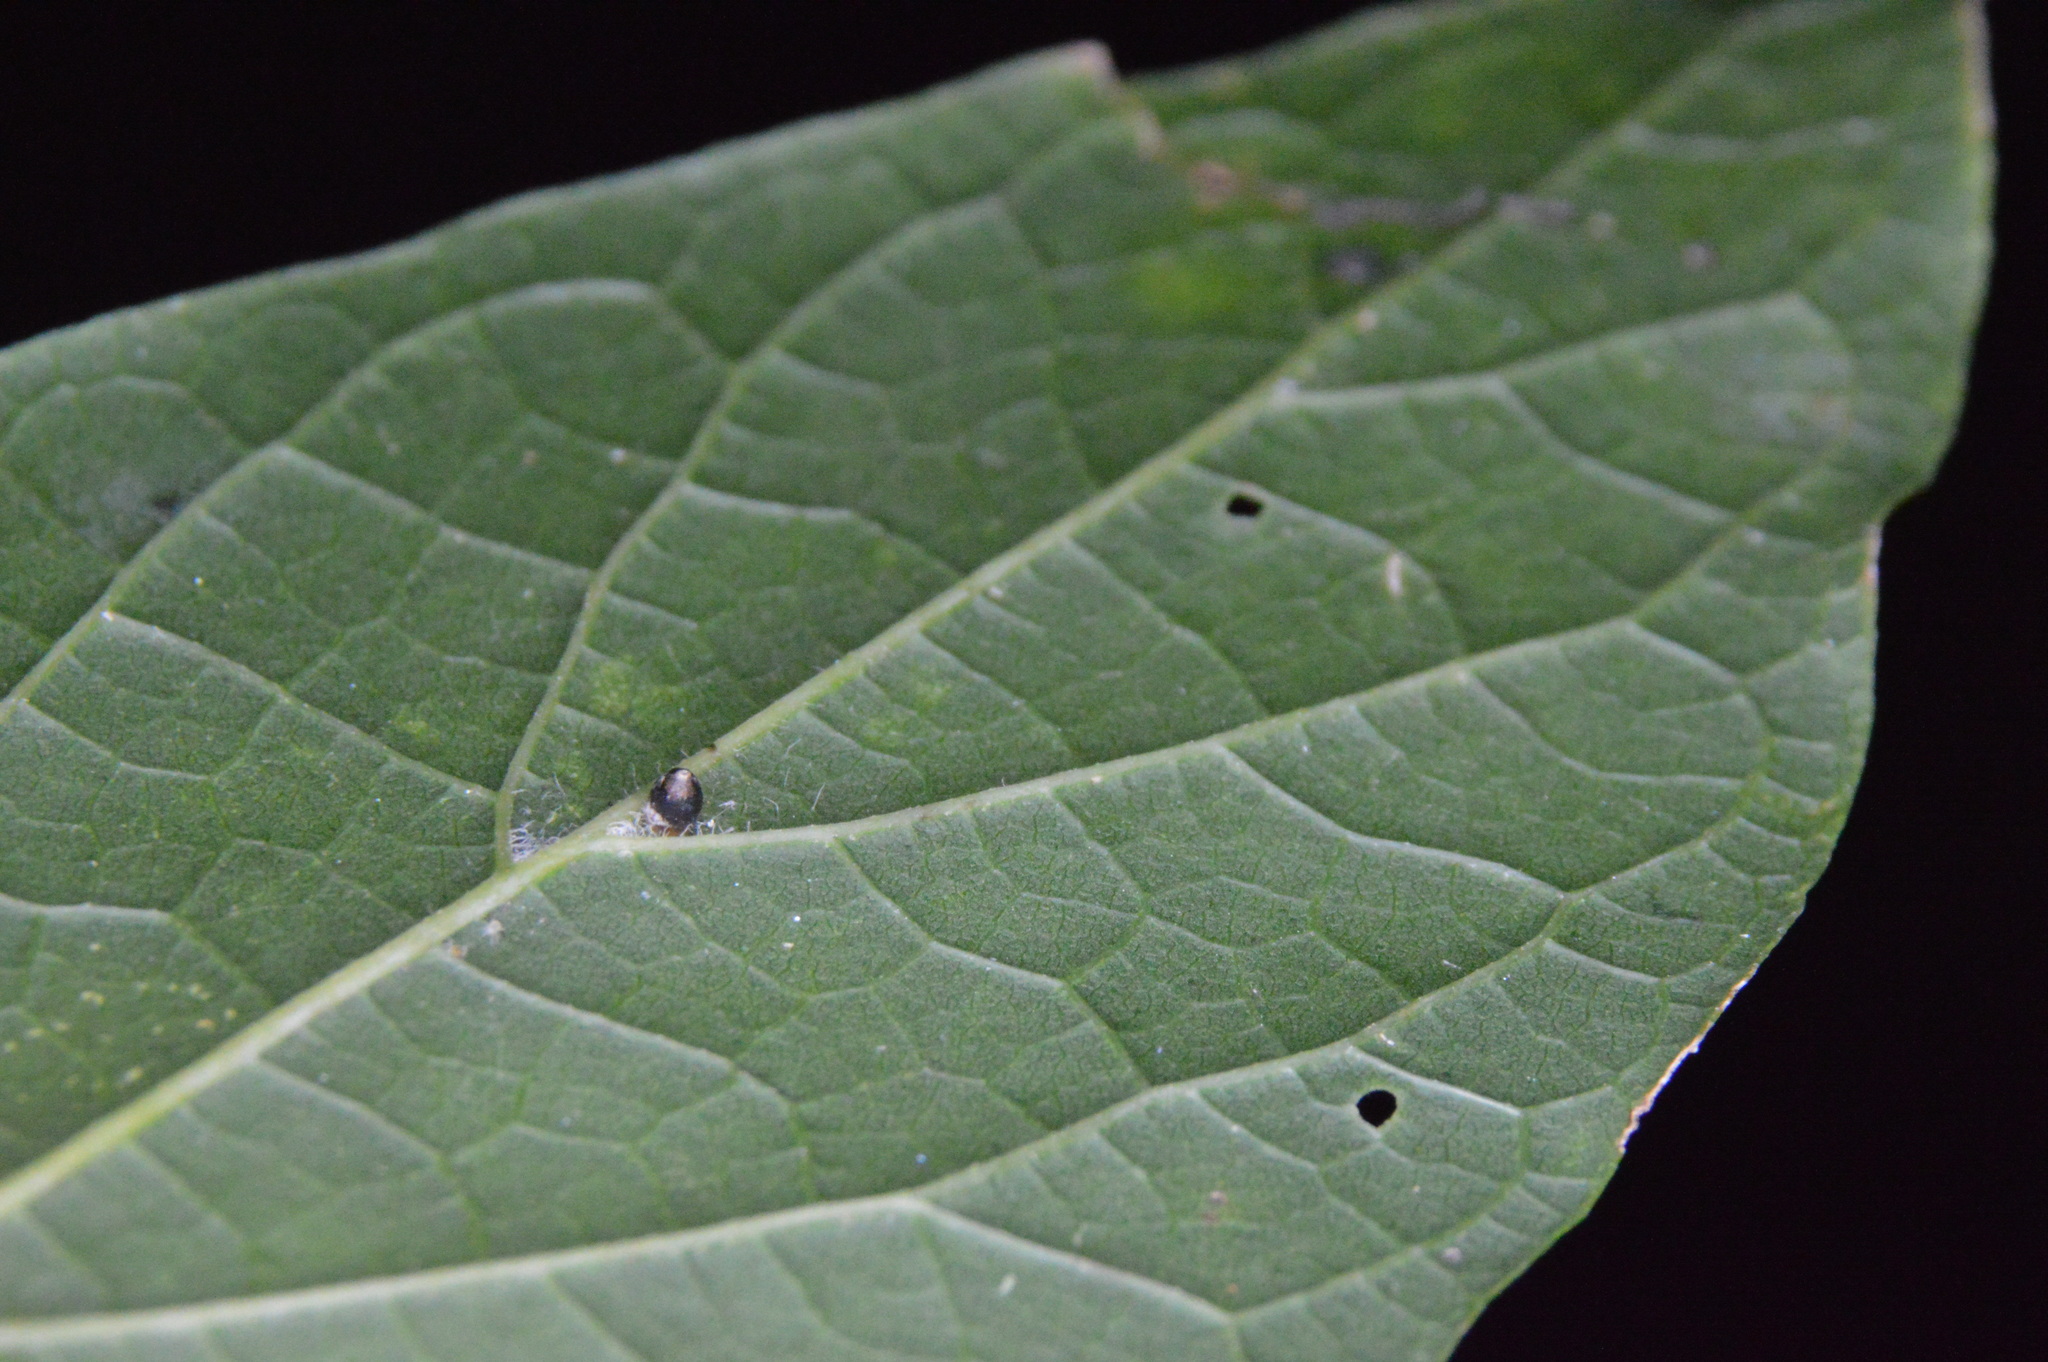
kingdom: Animalia
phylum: Arthropoda
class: Insecta
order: Diptera
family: Cecidomyiidae
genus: Celticecis
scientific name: Celticecis cupiformis
